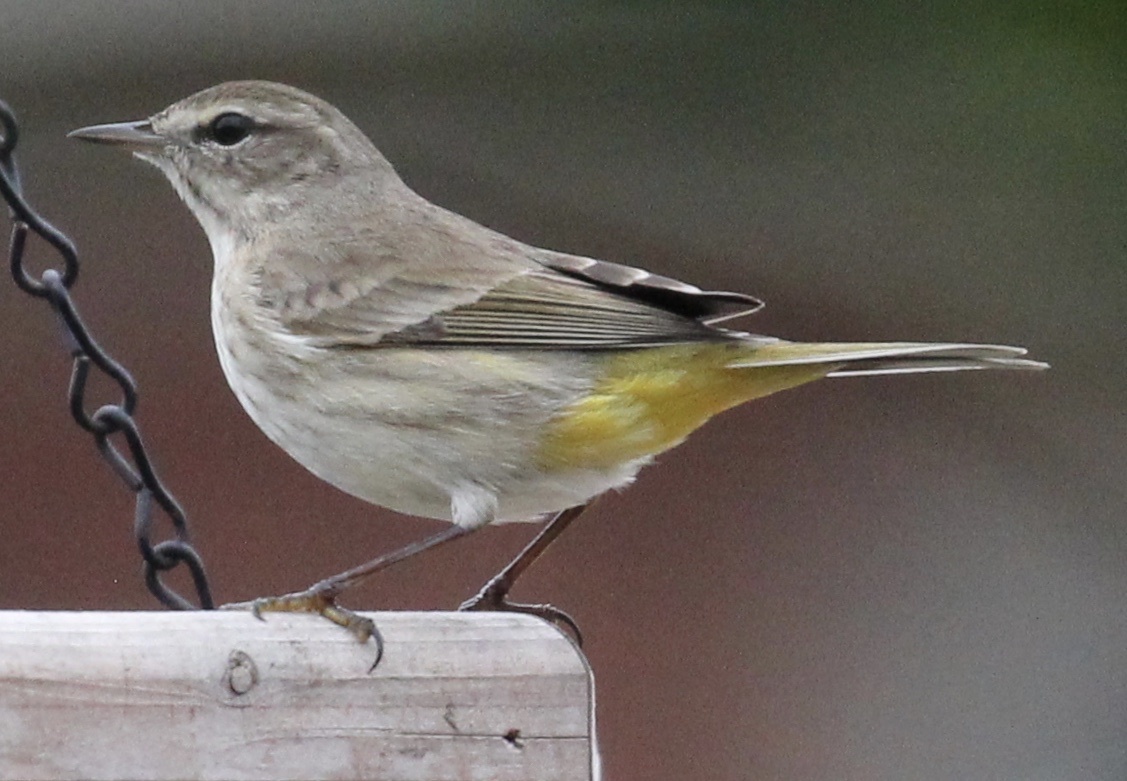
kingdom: Animalia
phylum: Chordata
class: Aves
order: Passeriformes
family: Parulidae
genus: Setophaga
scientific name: Setophaga palmarum
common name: Palm warbler
